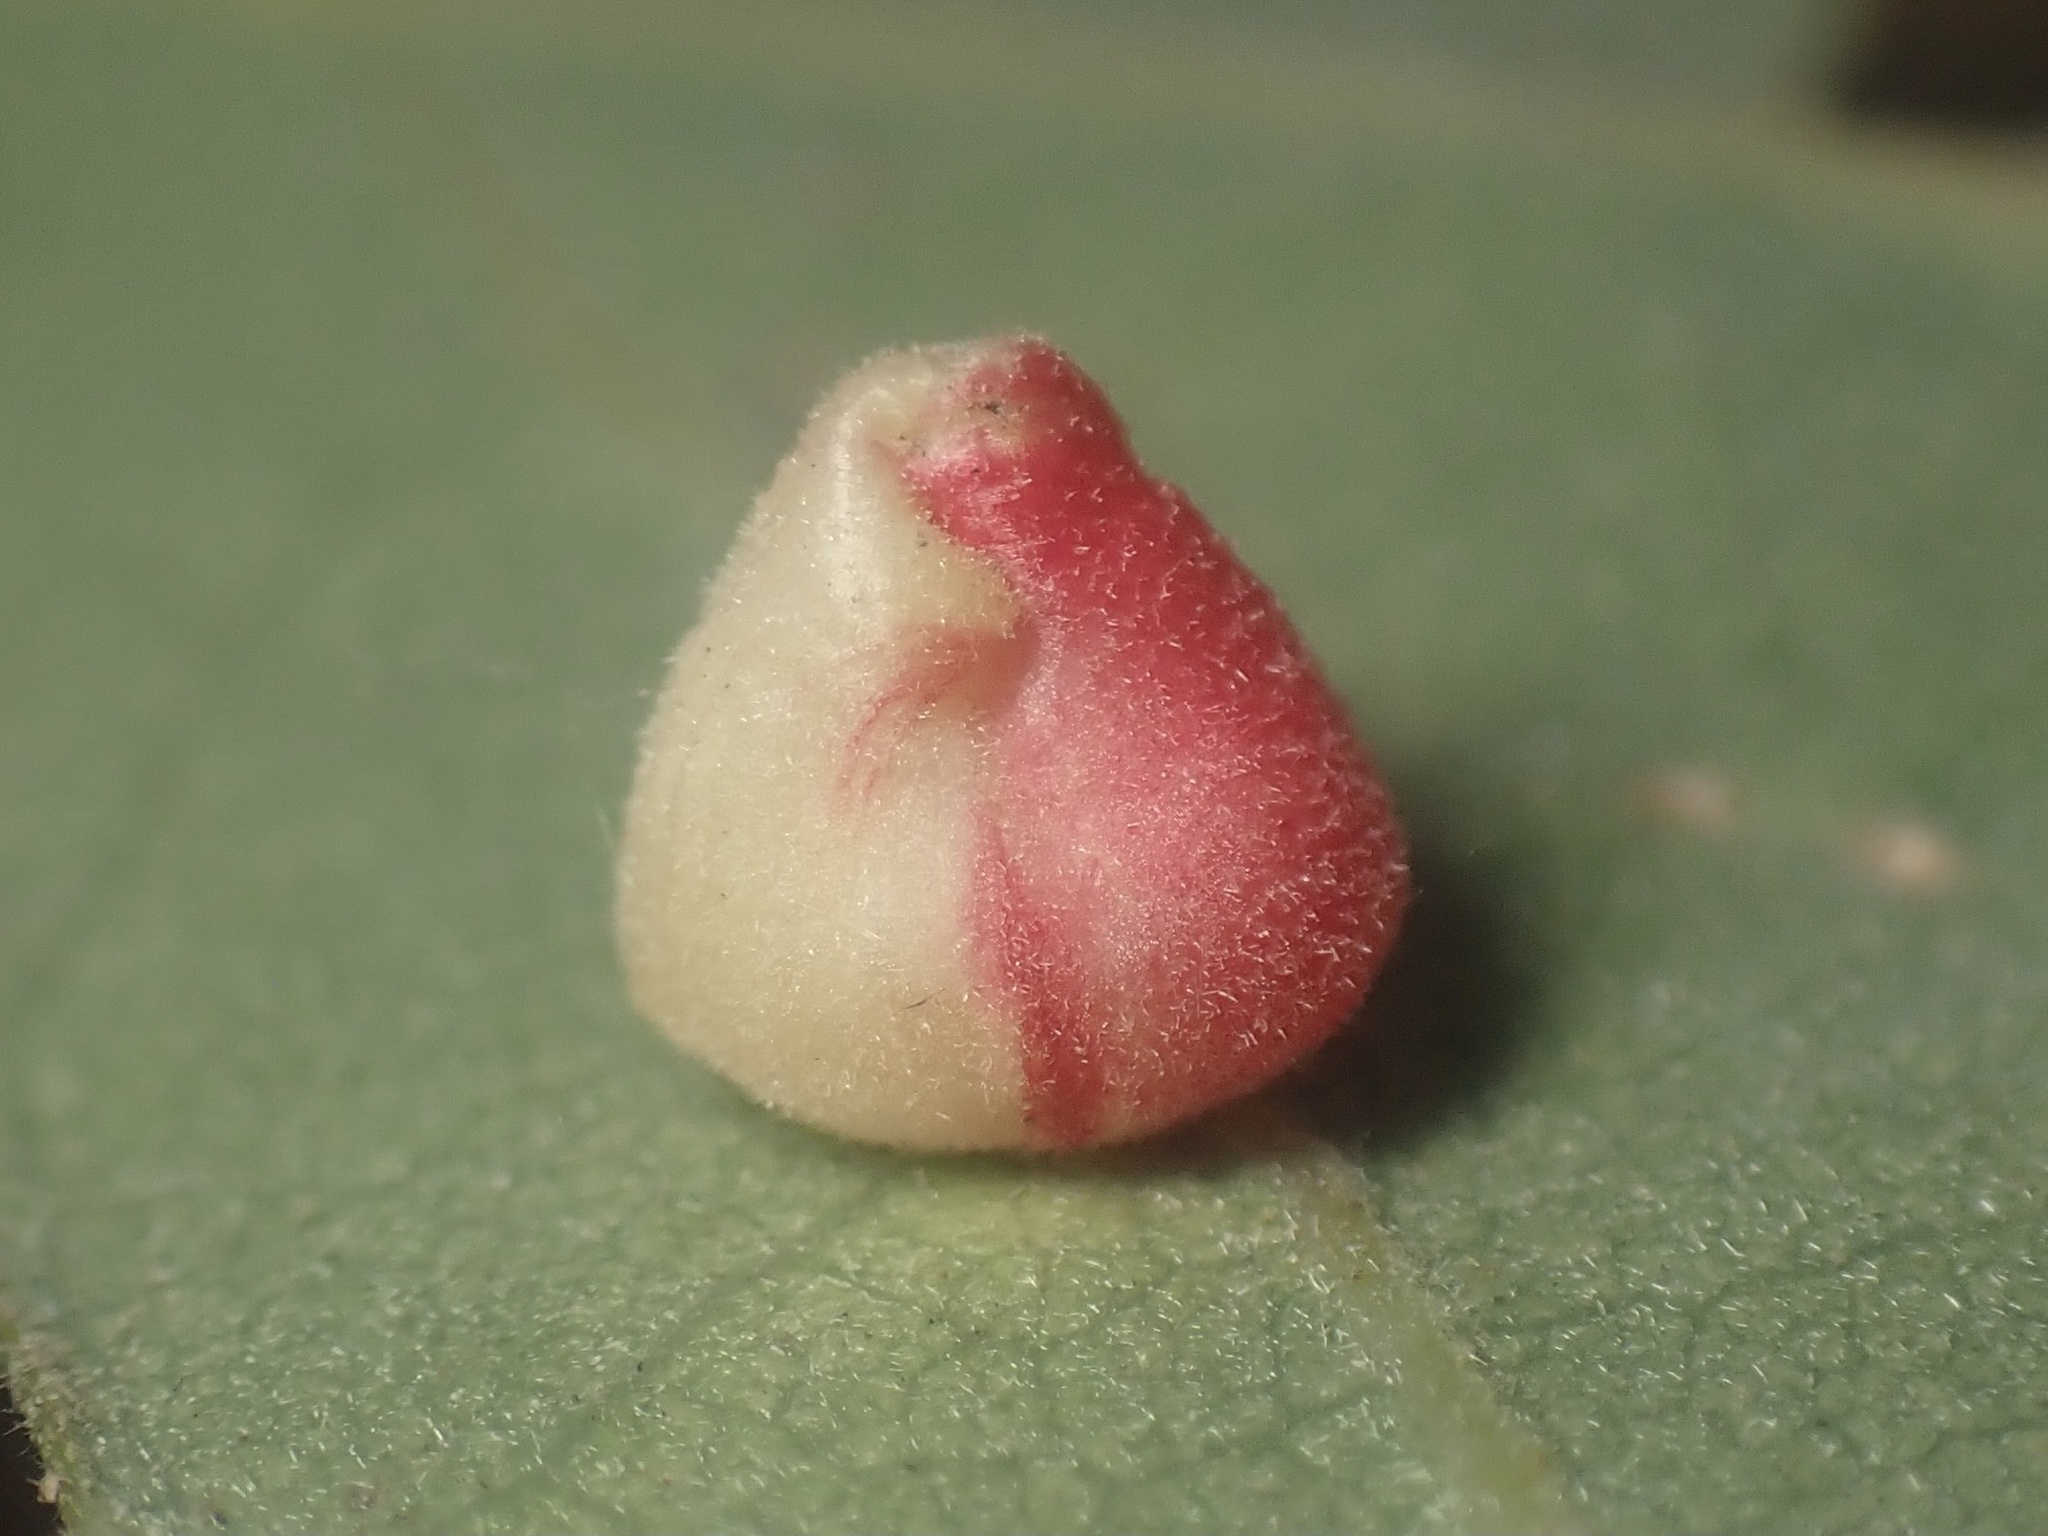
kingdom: Animalia
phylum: Arthropoda
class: Insecta
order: Hymenoptera
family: Cynipidae
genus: Andricus
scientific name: Andricus
